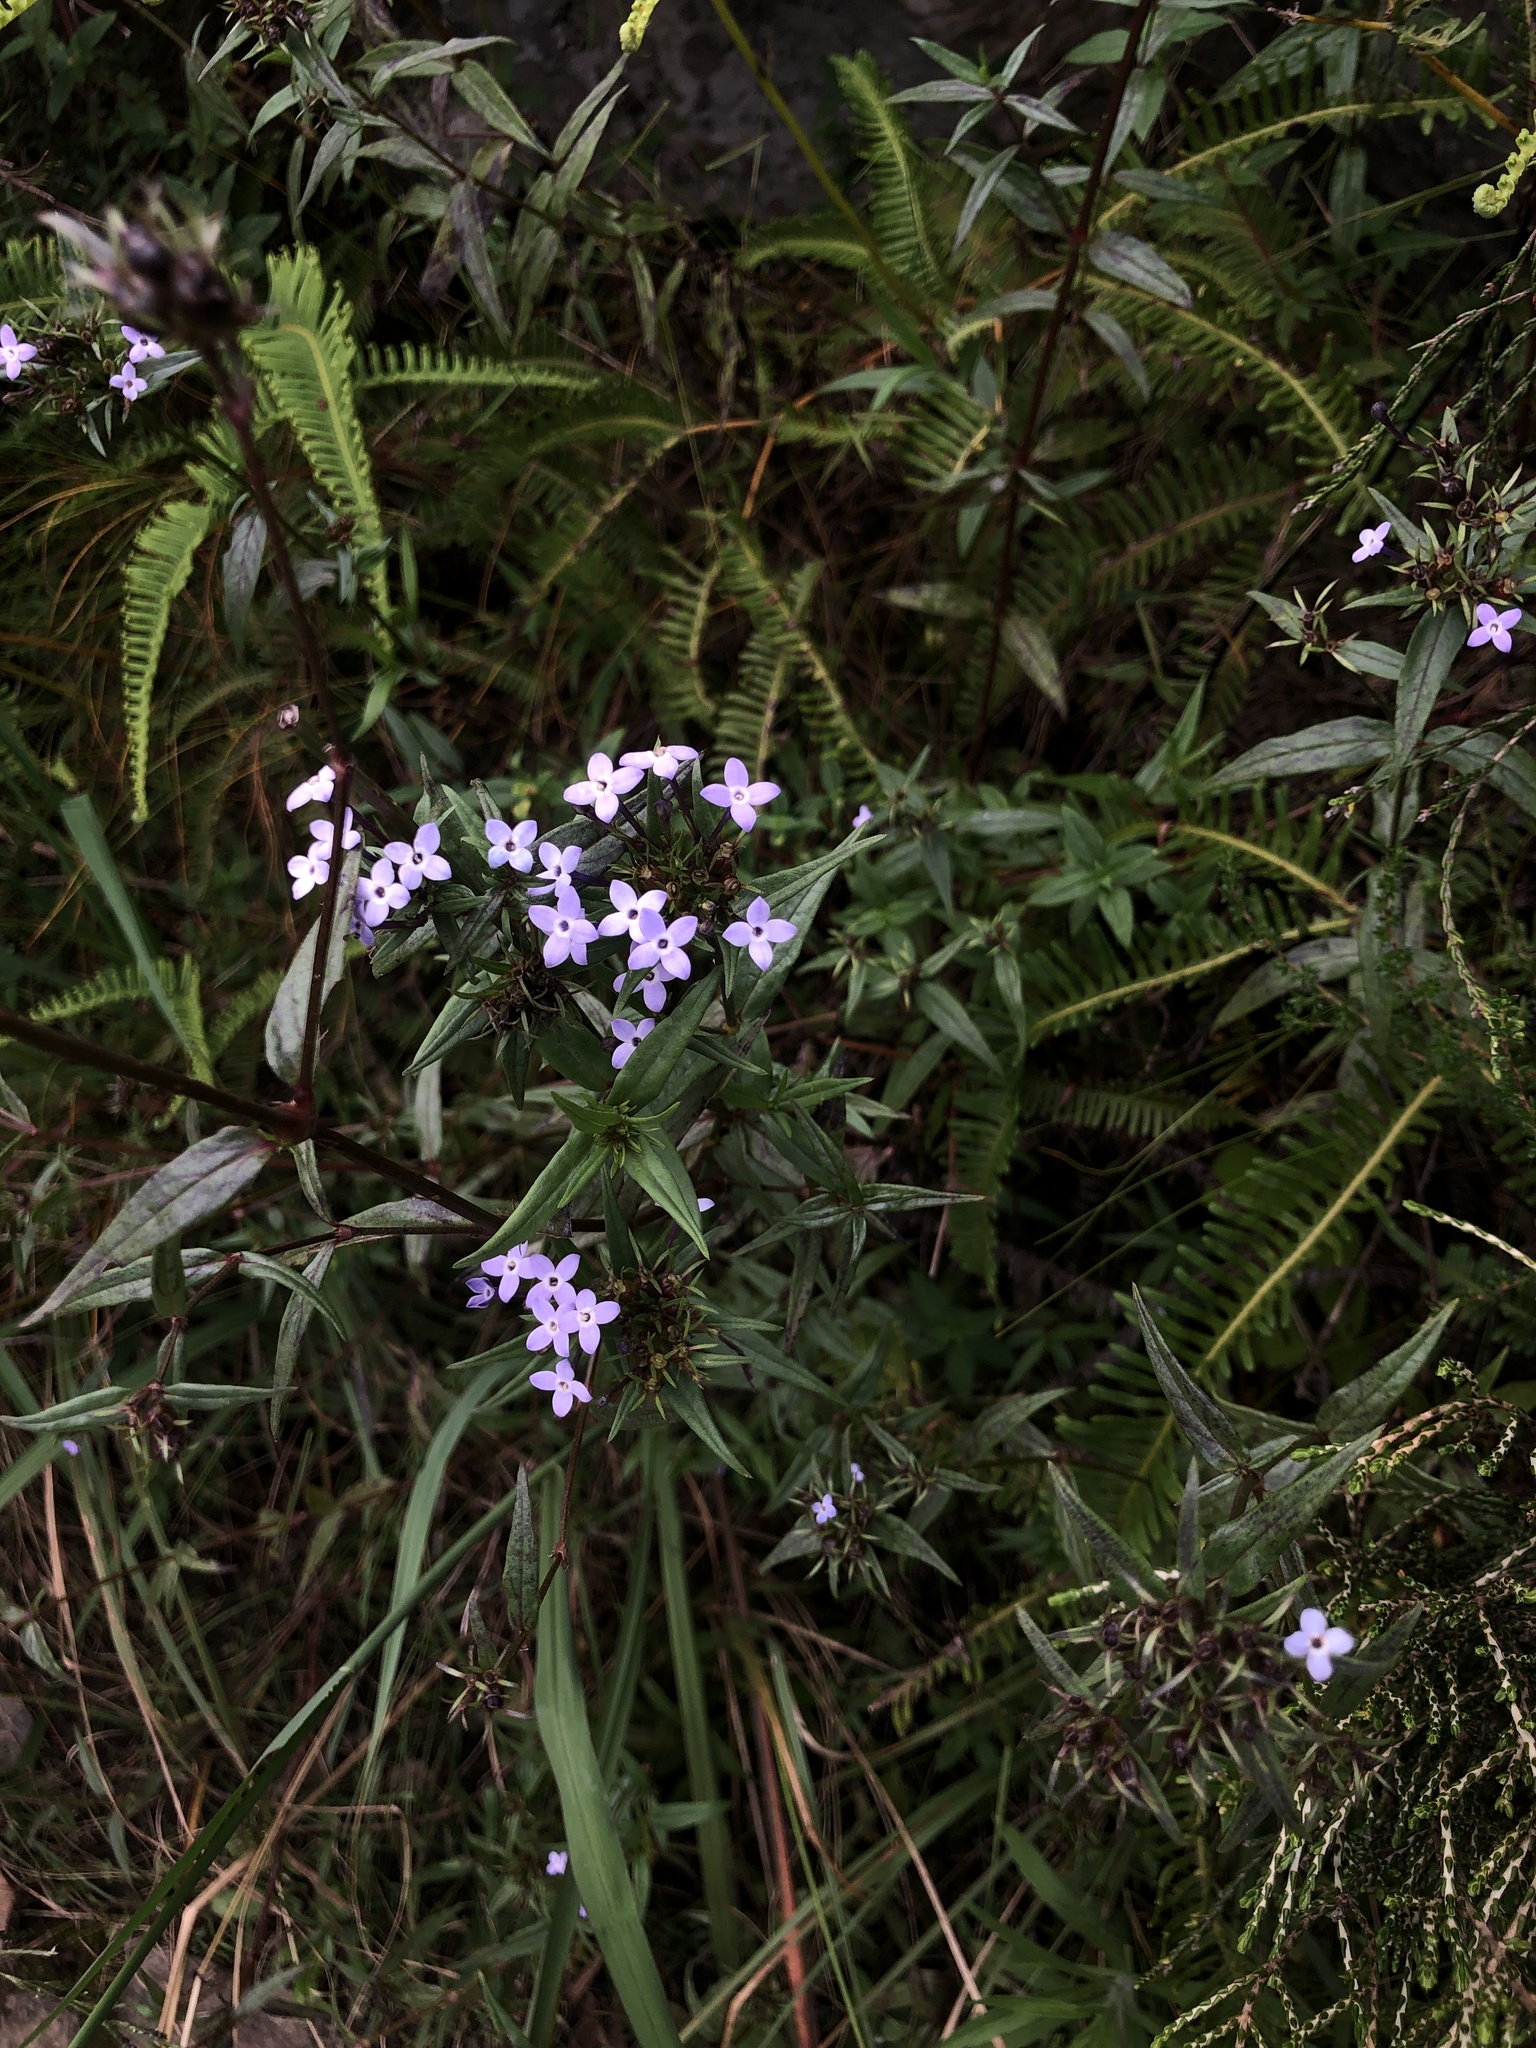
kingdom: Plantae
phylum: Tracheophyta
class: Magnoliopsida
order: Gentianales
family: Rubiaceae
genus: Conostomium
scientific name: Conostomium natalense
